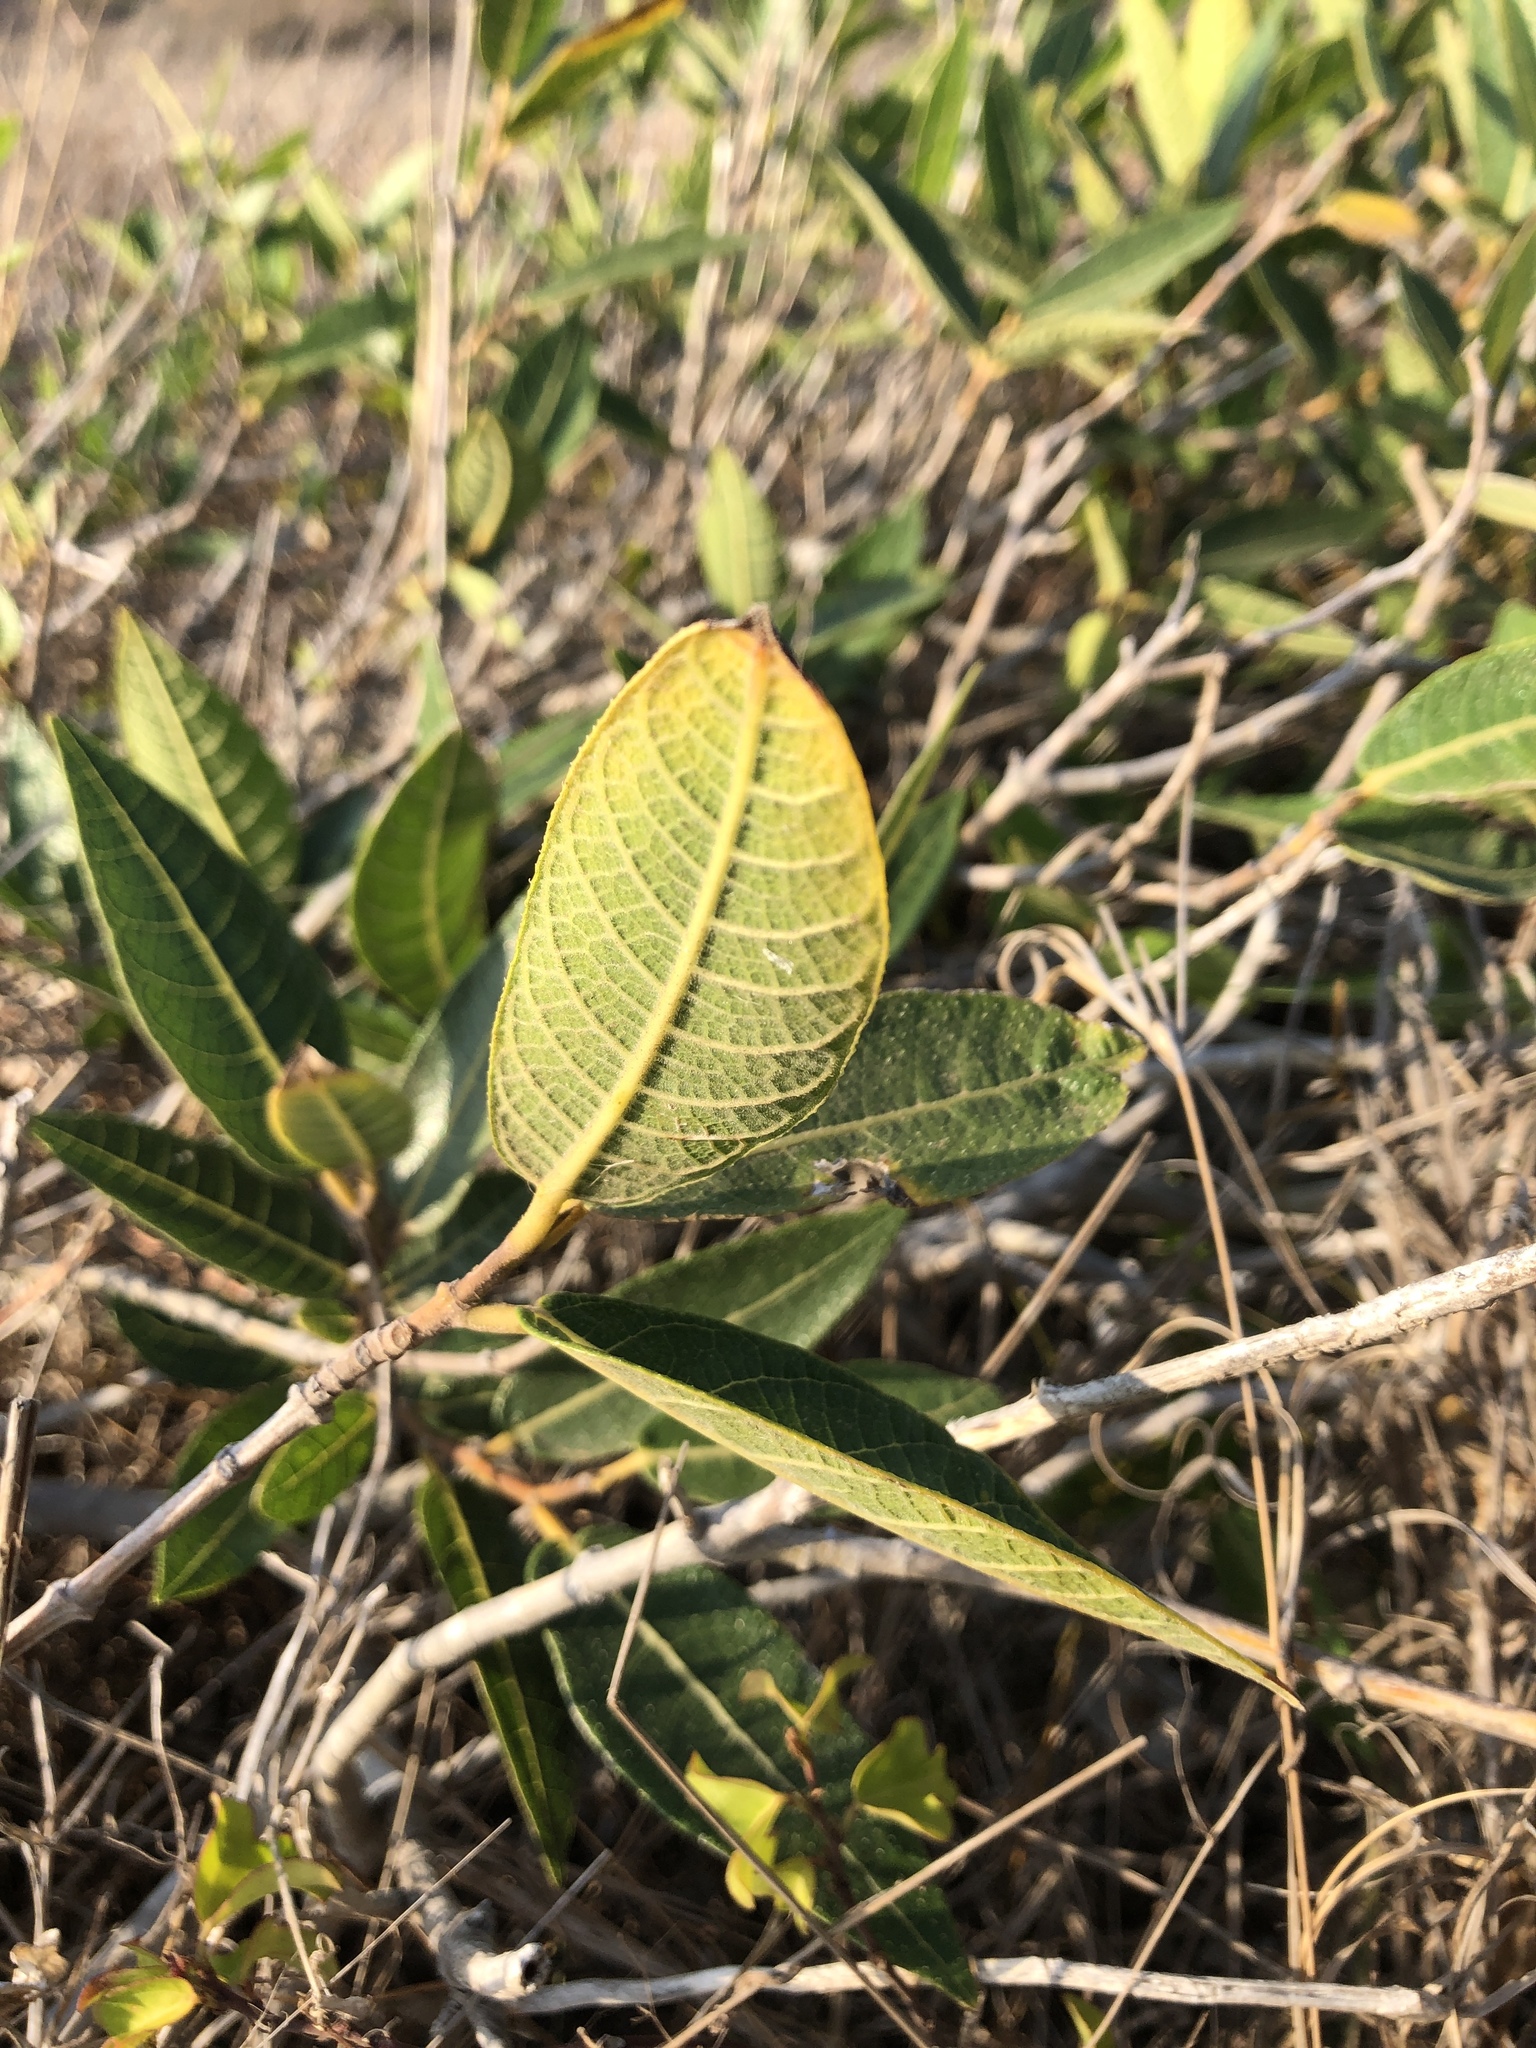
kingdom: Plantae
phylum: Tracheophyta
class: Magnoliopsida
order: Rosales
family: Moraceae
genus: Ficus
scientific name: Ficus opposita
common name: Figwood
